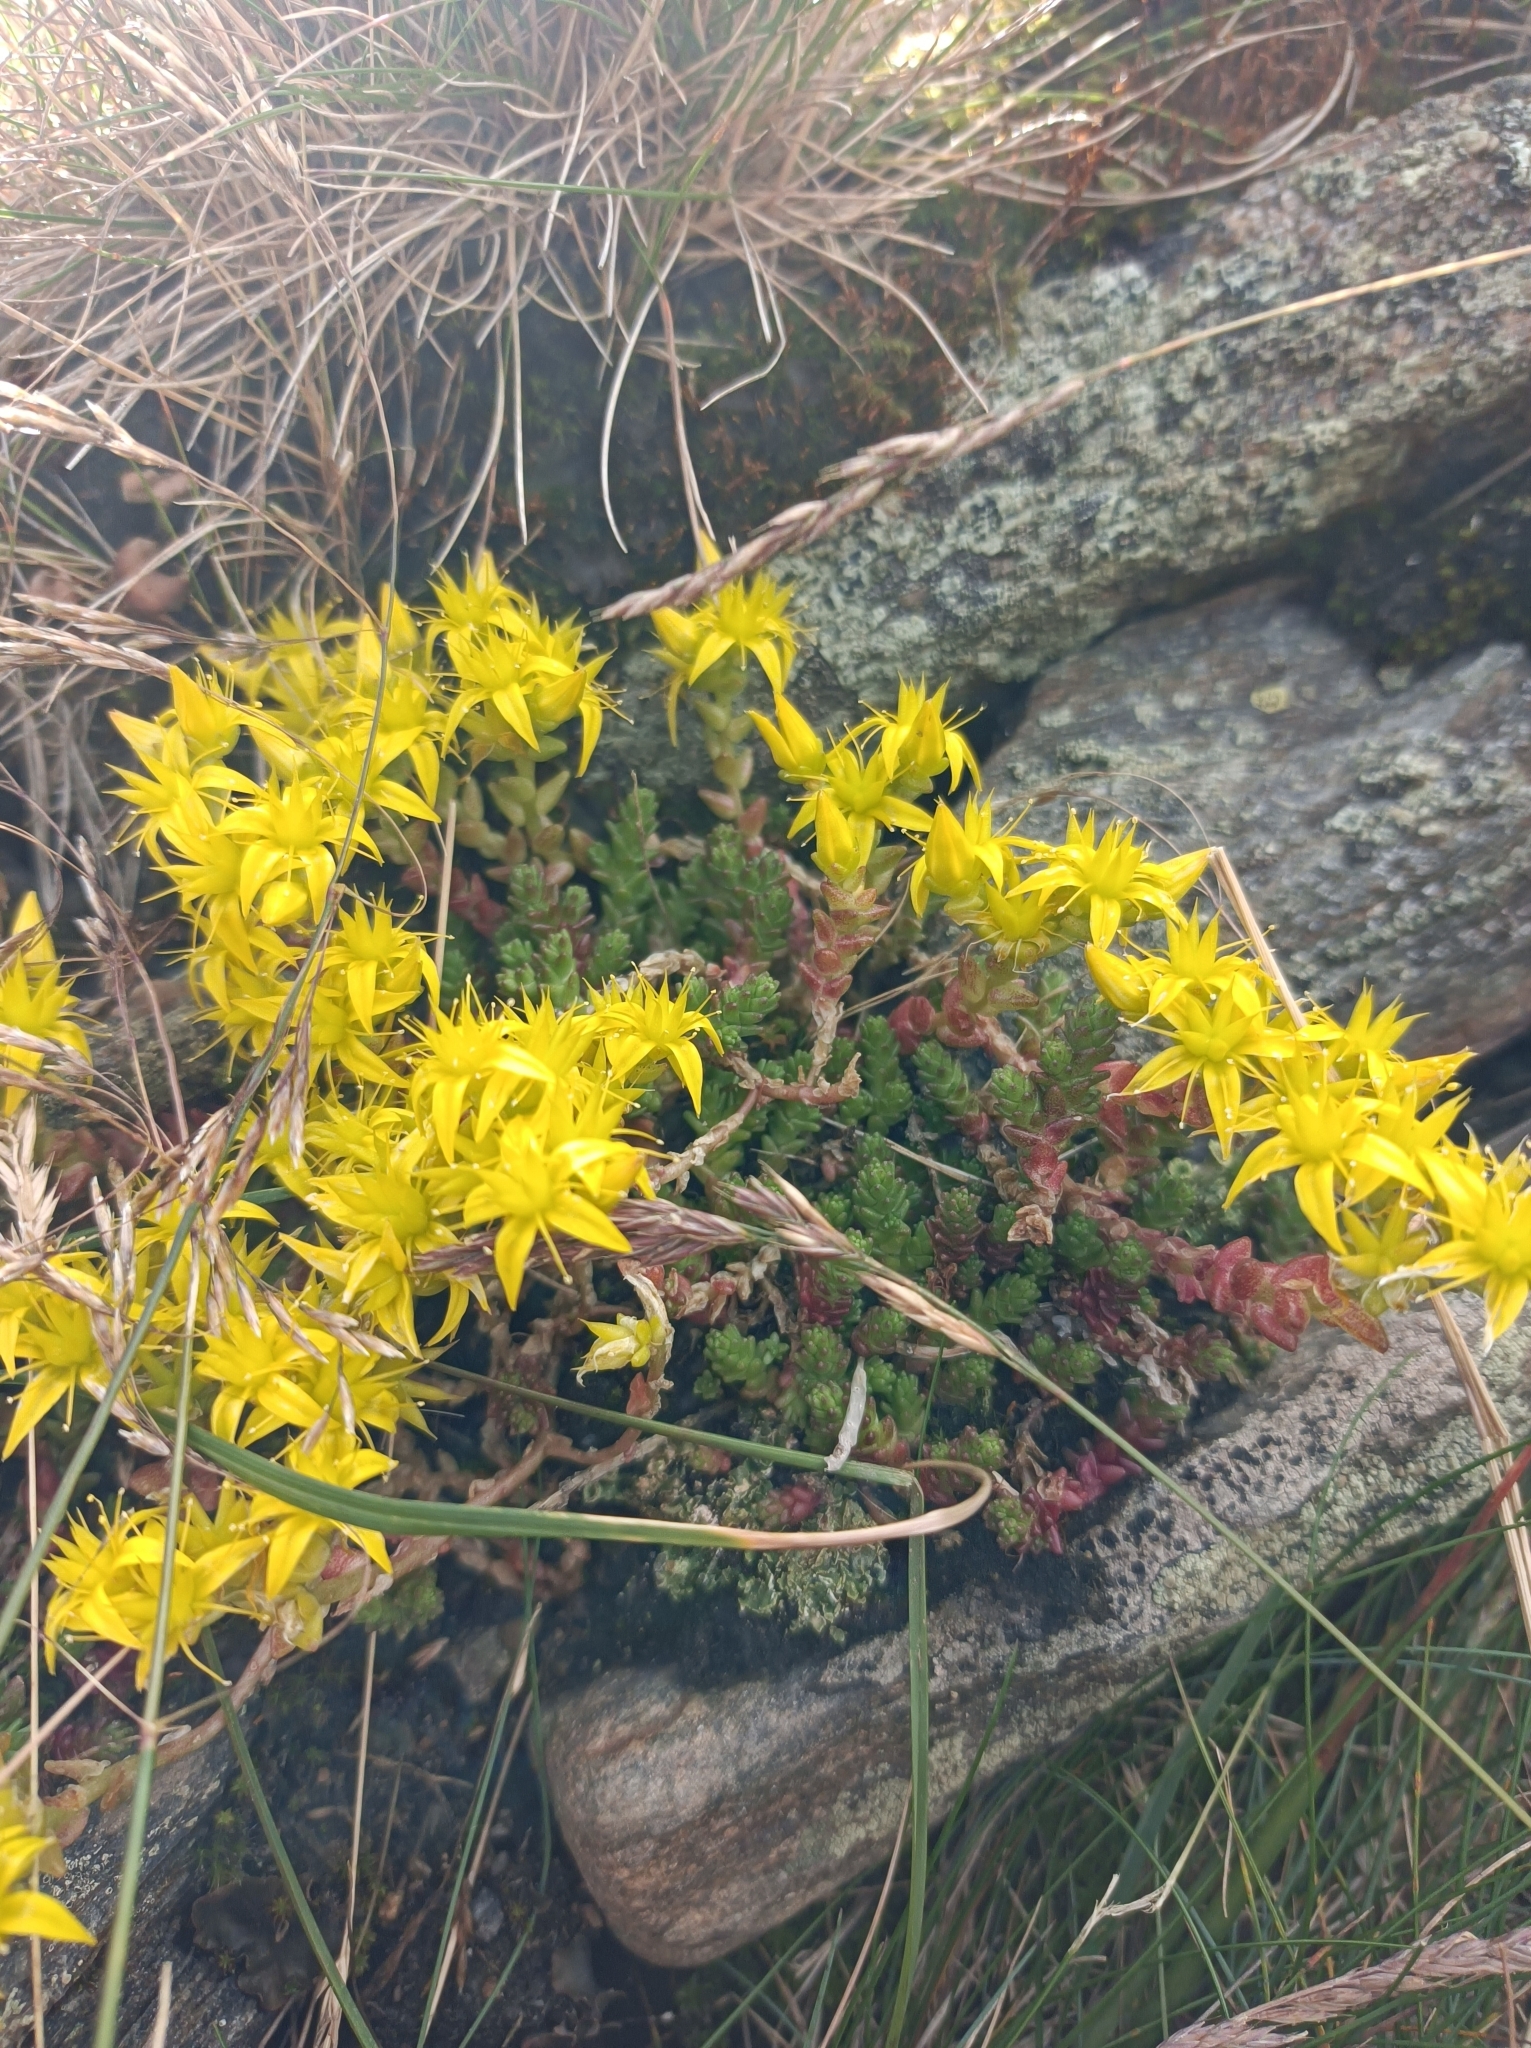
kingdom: Plantae
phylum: Tracheophyta
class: Magnoliopsida
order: Saxifragales
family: Crassulaceae
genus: Sedum
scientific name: Sedum acre
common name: Biting stonecrop
